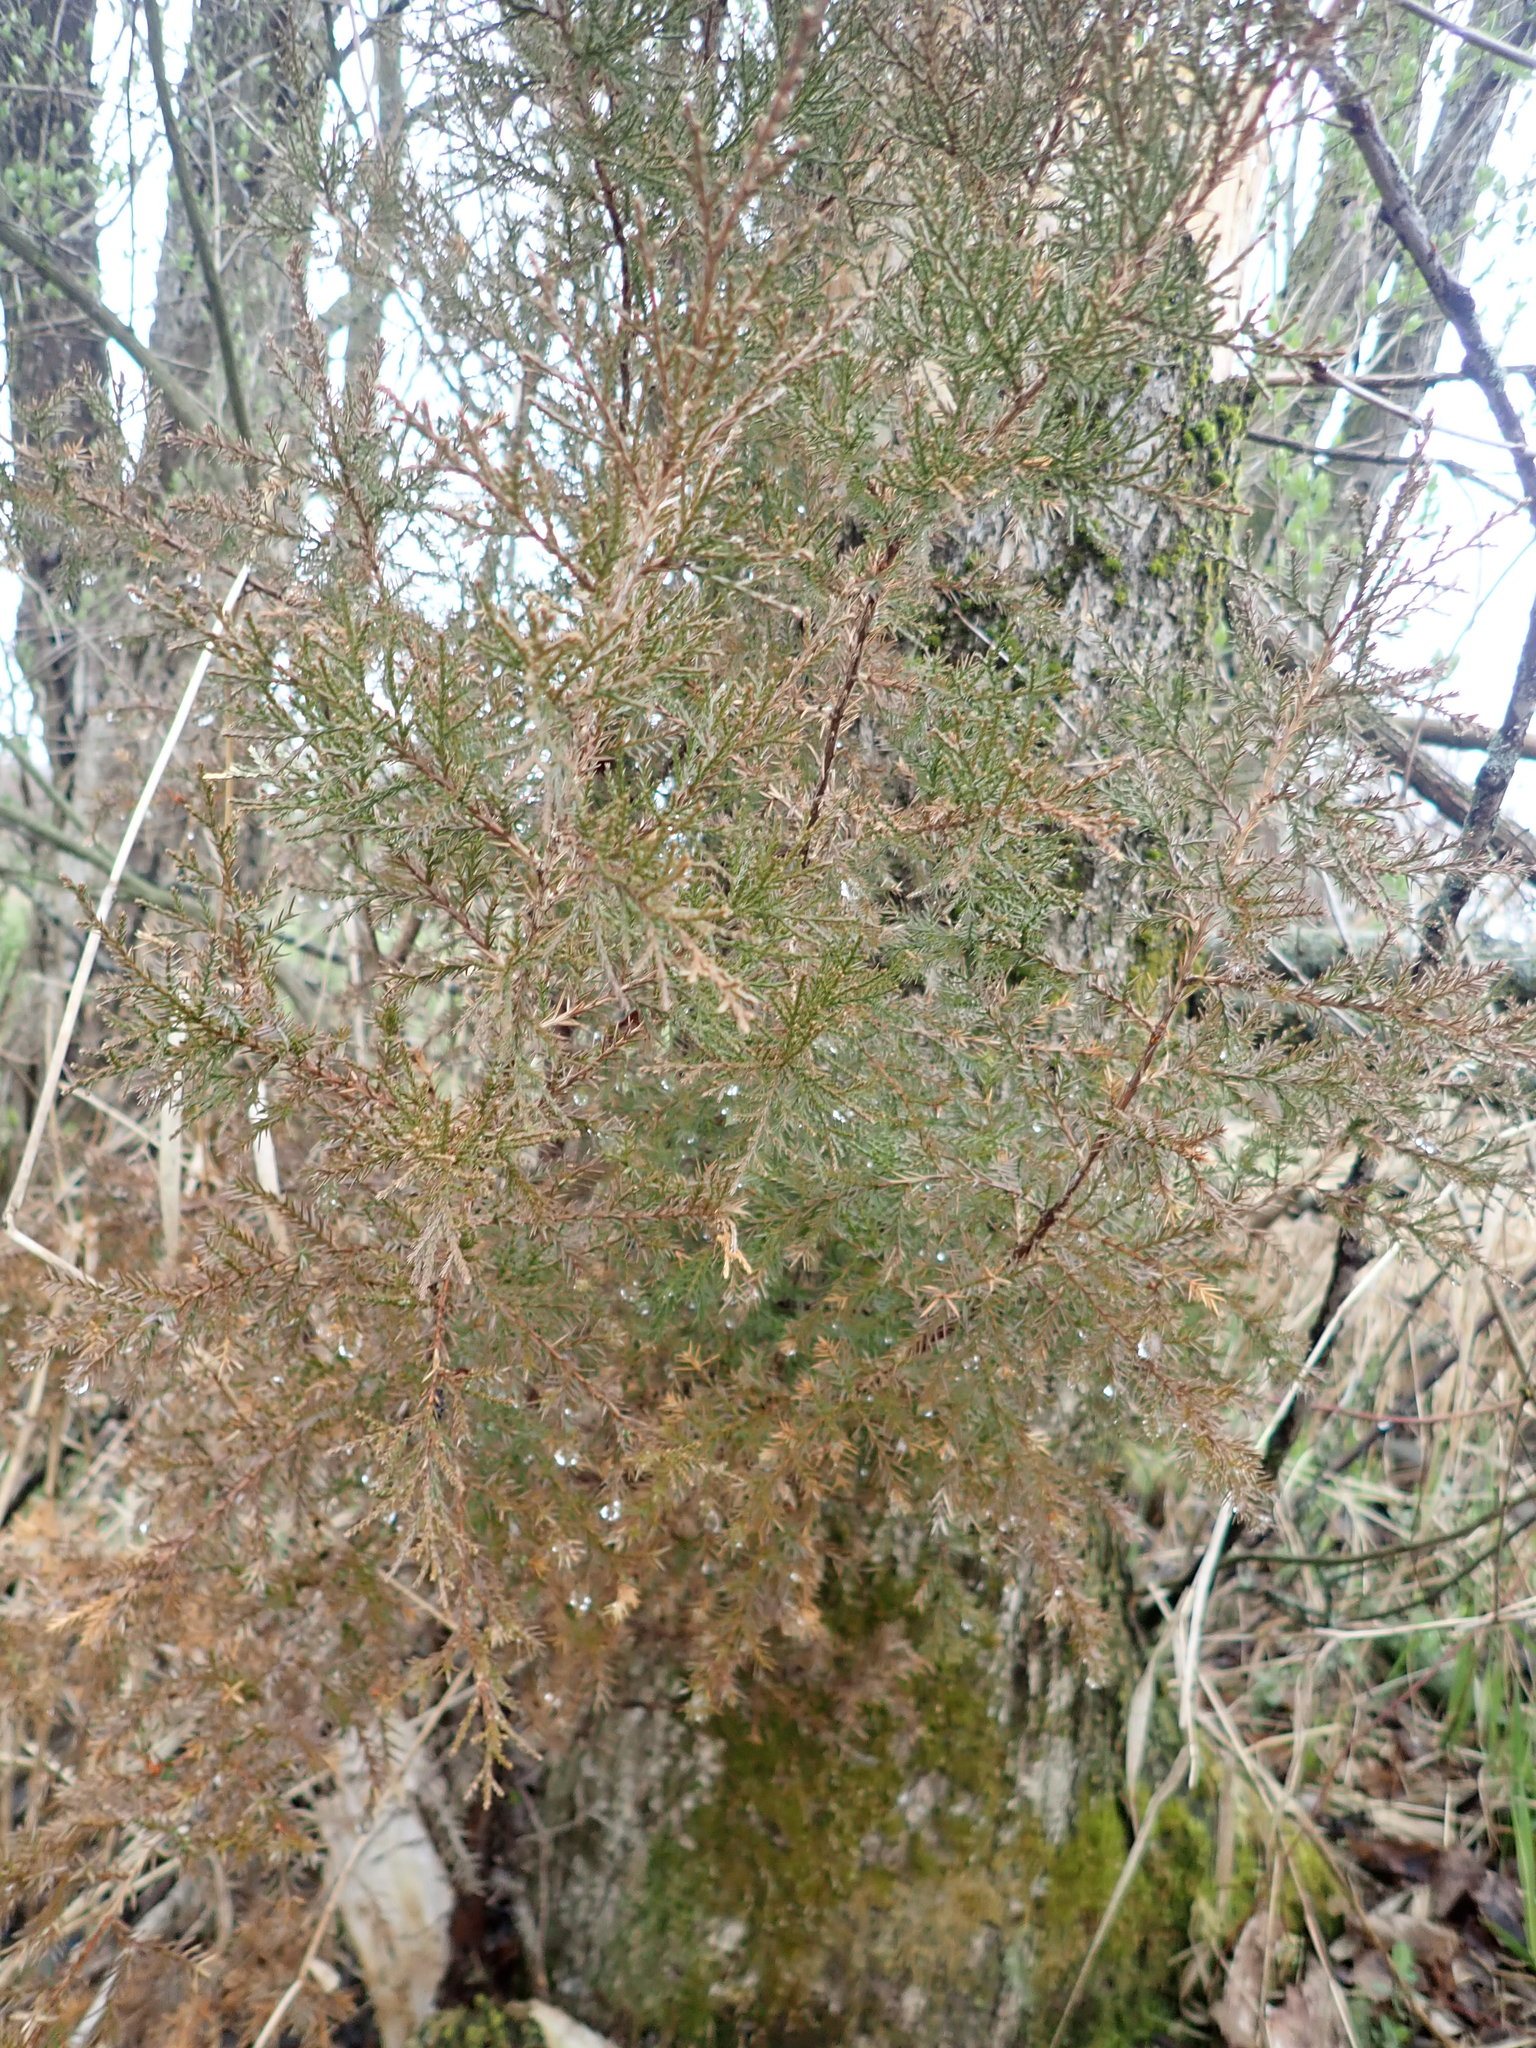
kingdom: Plantae
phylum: Tracheophyta
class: Pinopsida
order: Pinales
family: Cupressaceae
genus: Juniperus
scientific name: Juniperus virginiana
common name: Red juniper
